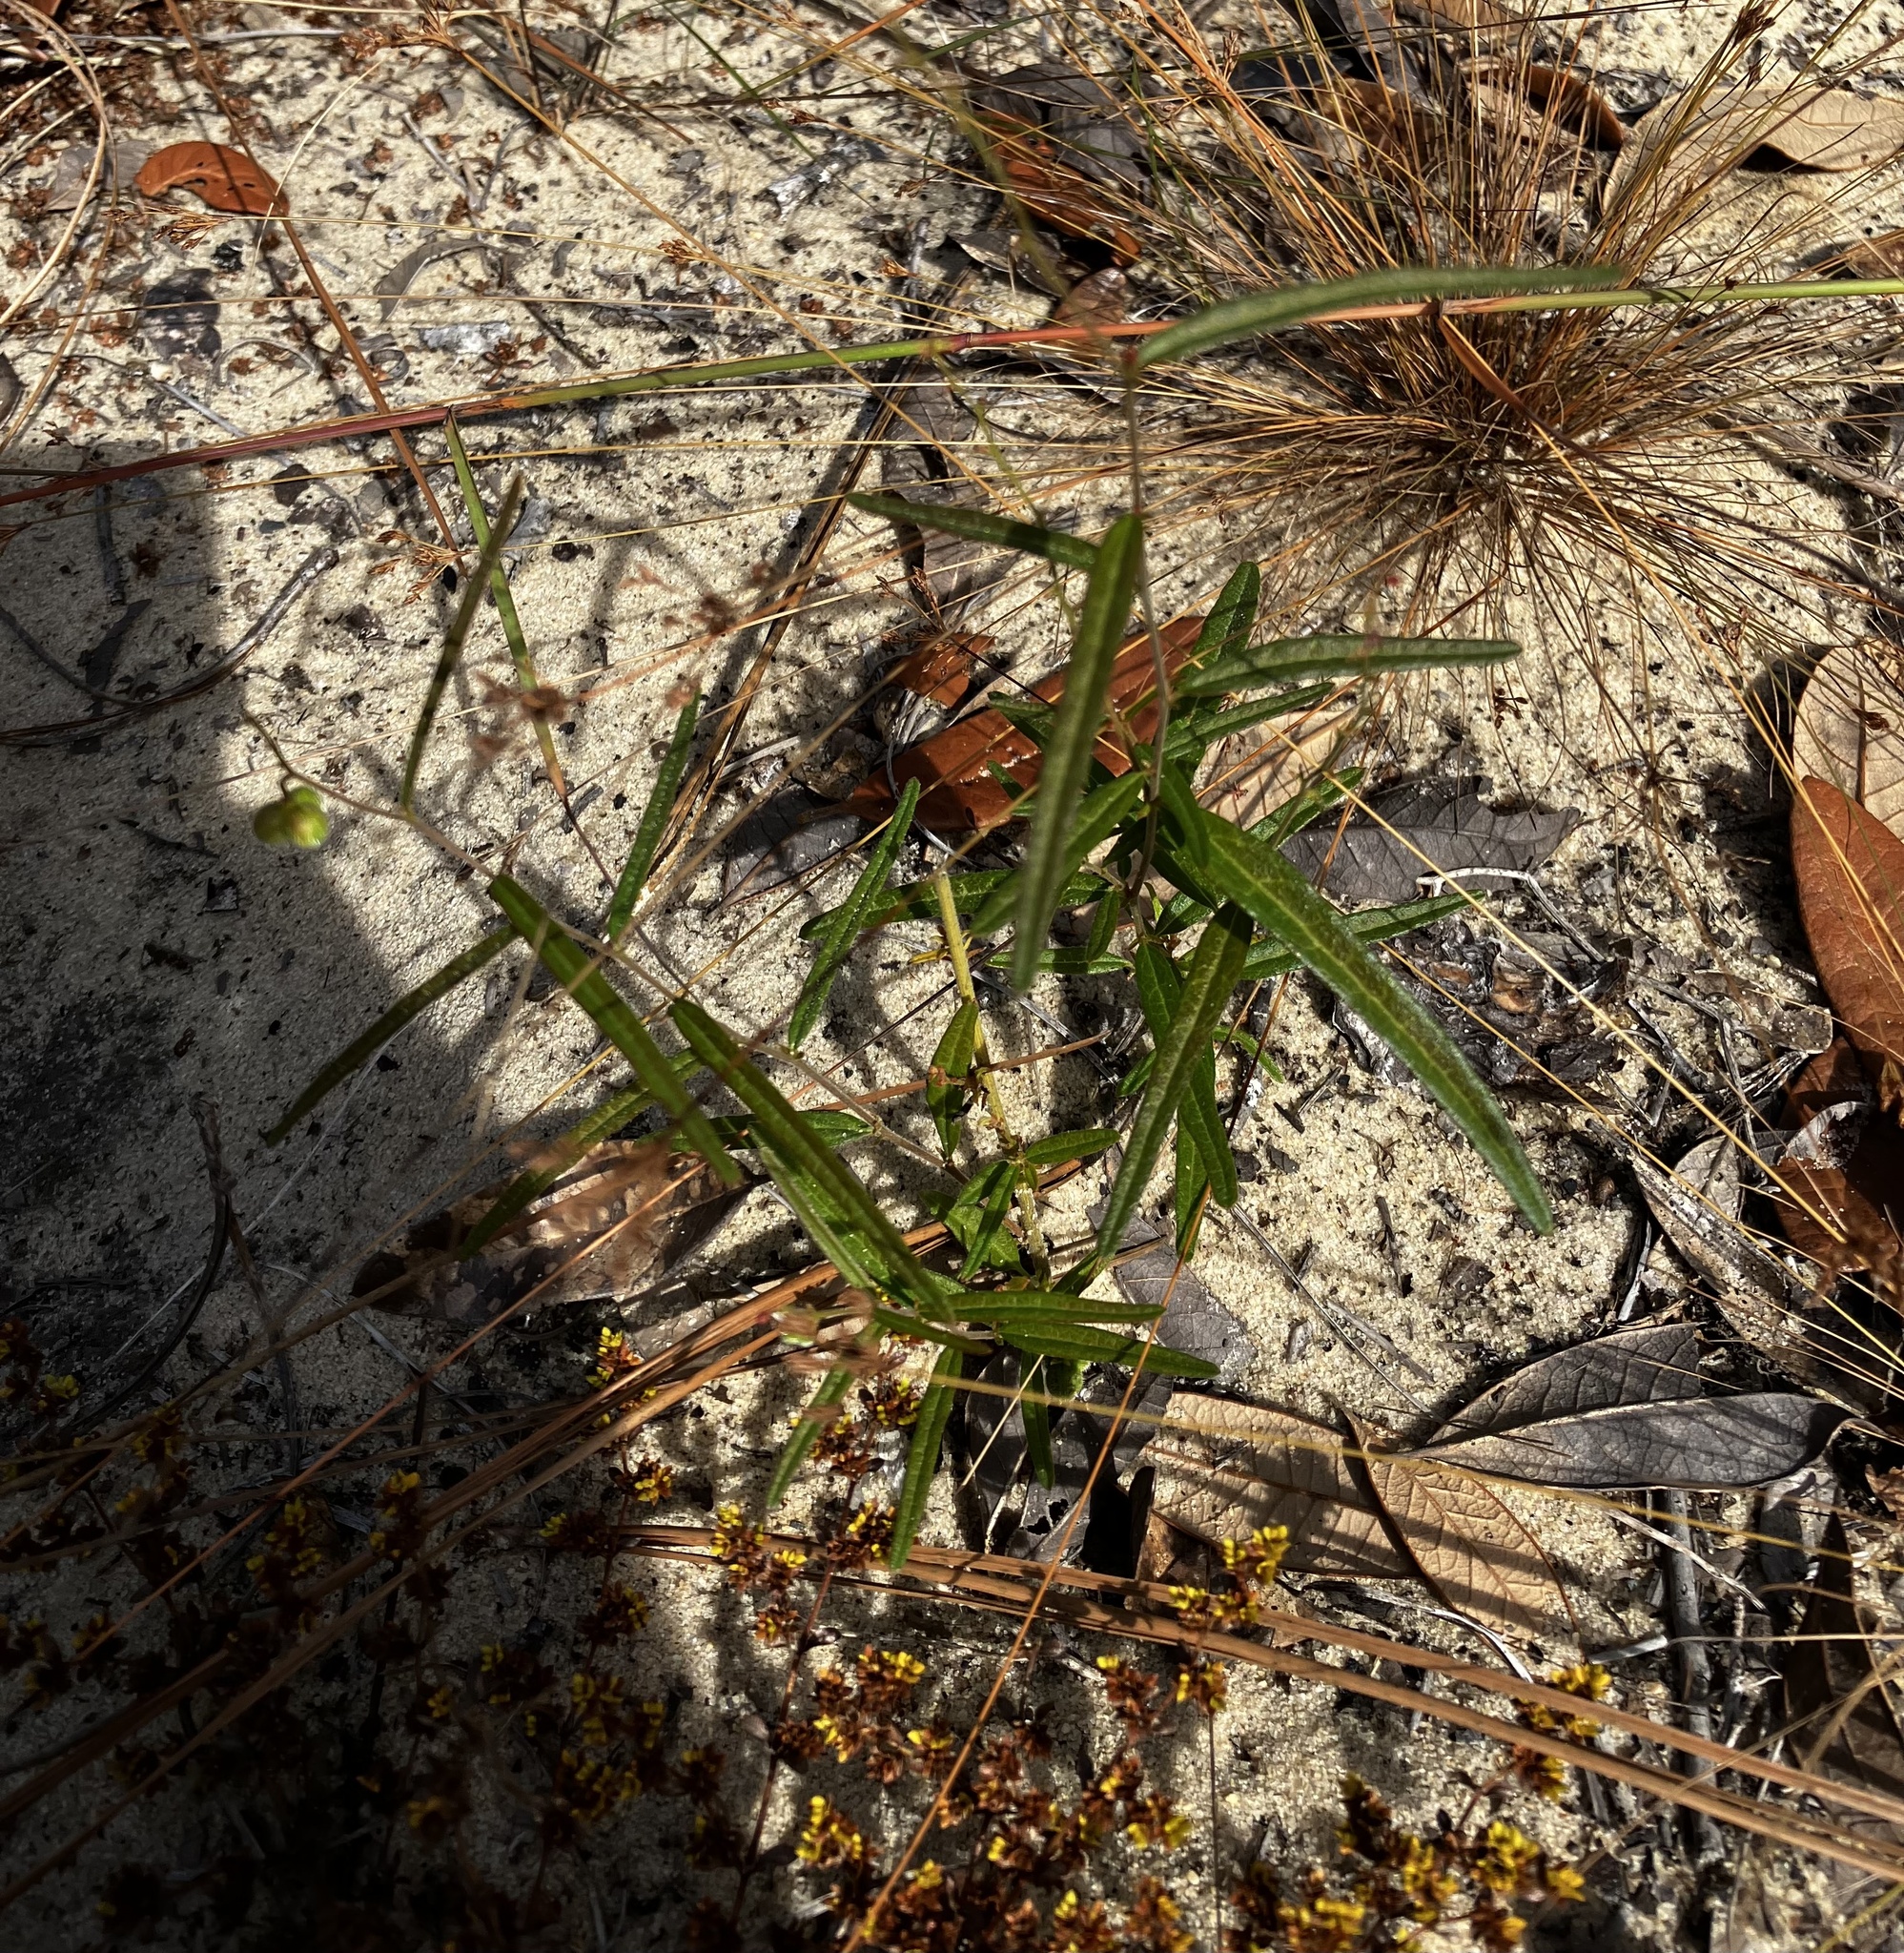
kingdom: Plantae
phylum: Tracheophyta
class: Magnoliopsida
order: Malpighiales
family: Euphorbiaceae
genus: Tragia
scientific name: Tragia urens
